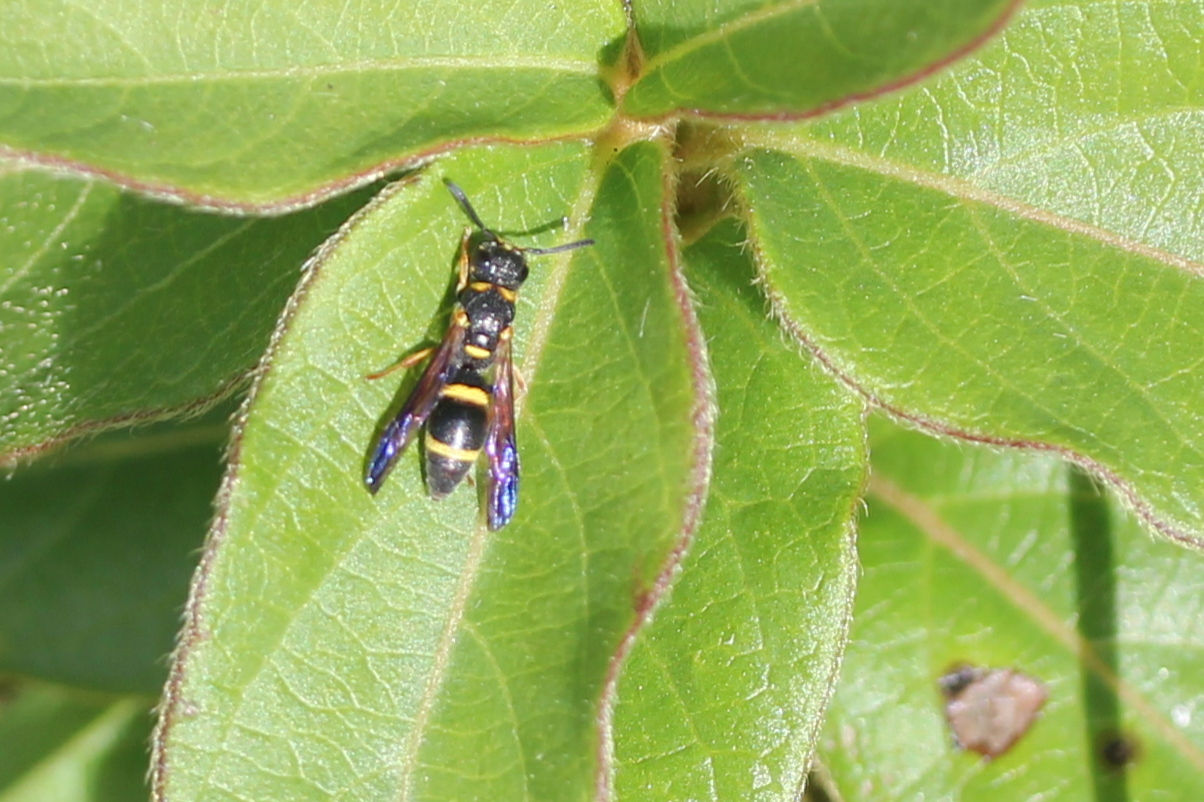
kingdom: Animalia
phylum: Arthropoda
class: Insecta
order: Hymenoptera
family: Eumenidae
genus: Parancistrocerus
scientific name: Parancistrocerus perennis
